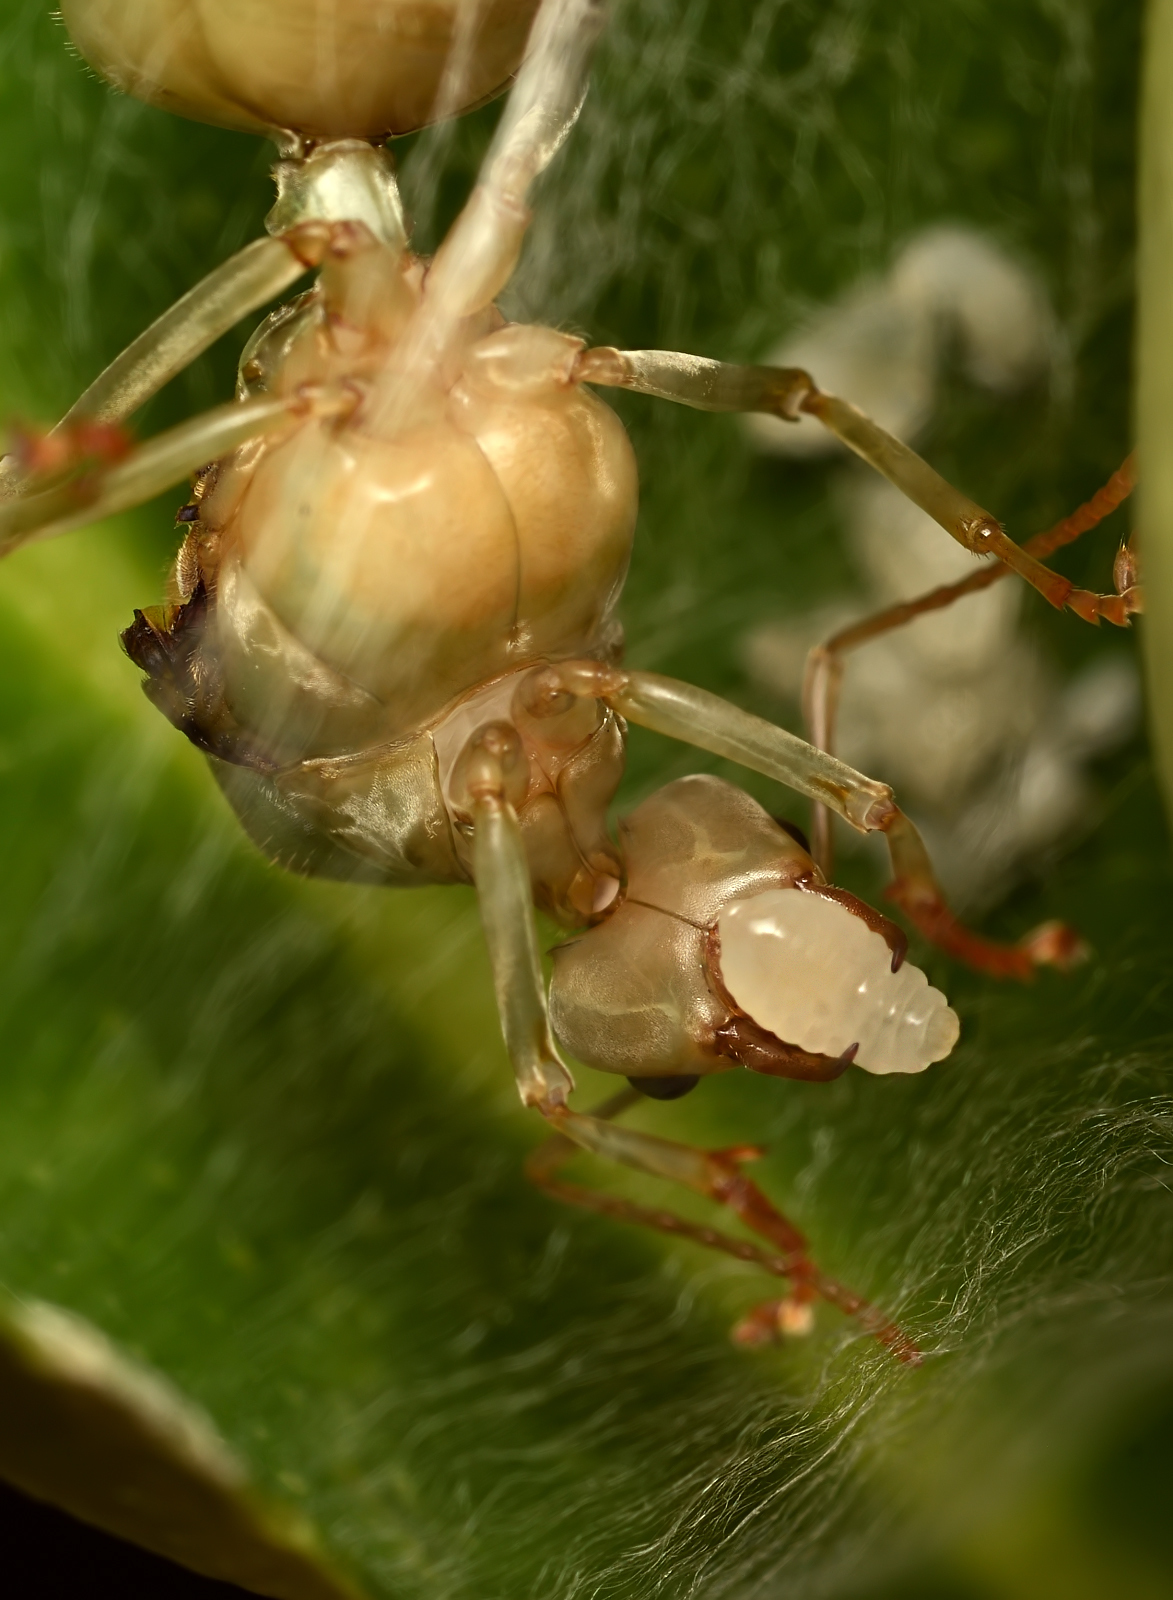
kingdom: Animalia
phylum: Arthropoda
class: Insecta
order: Hymenoptera
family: Formicidae
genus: Oecophylla
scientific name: Oecophylla smaragdina
